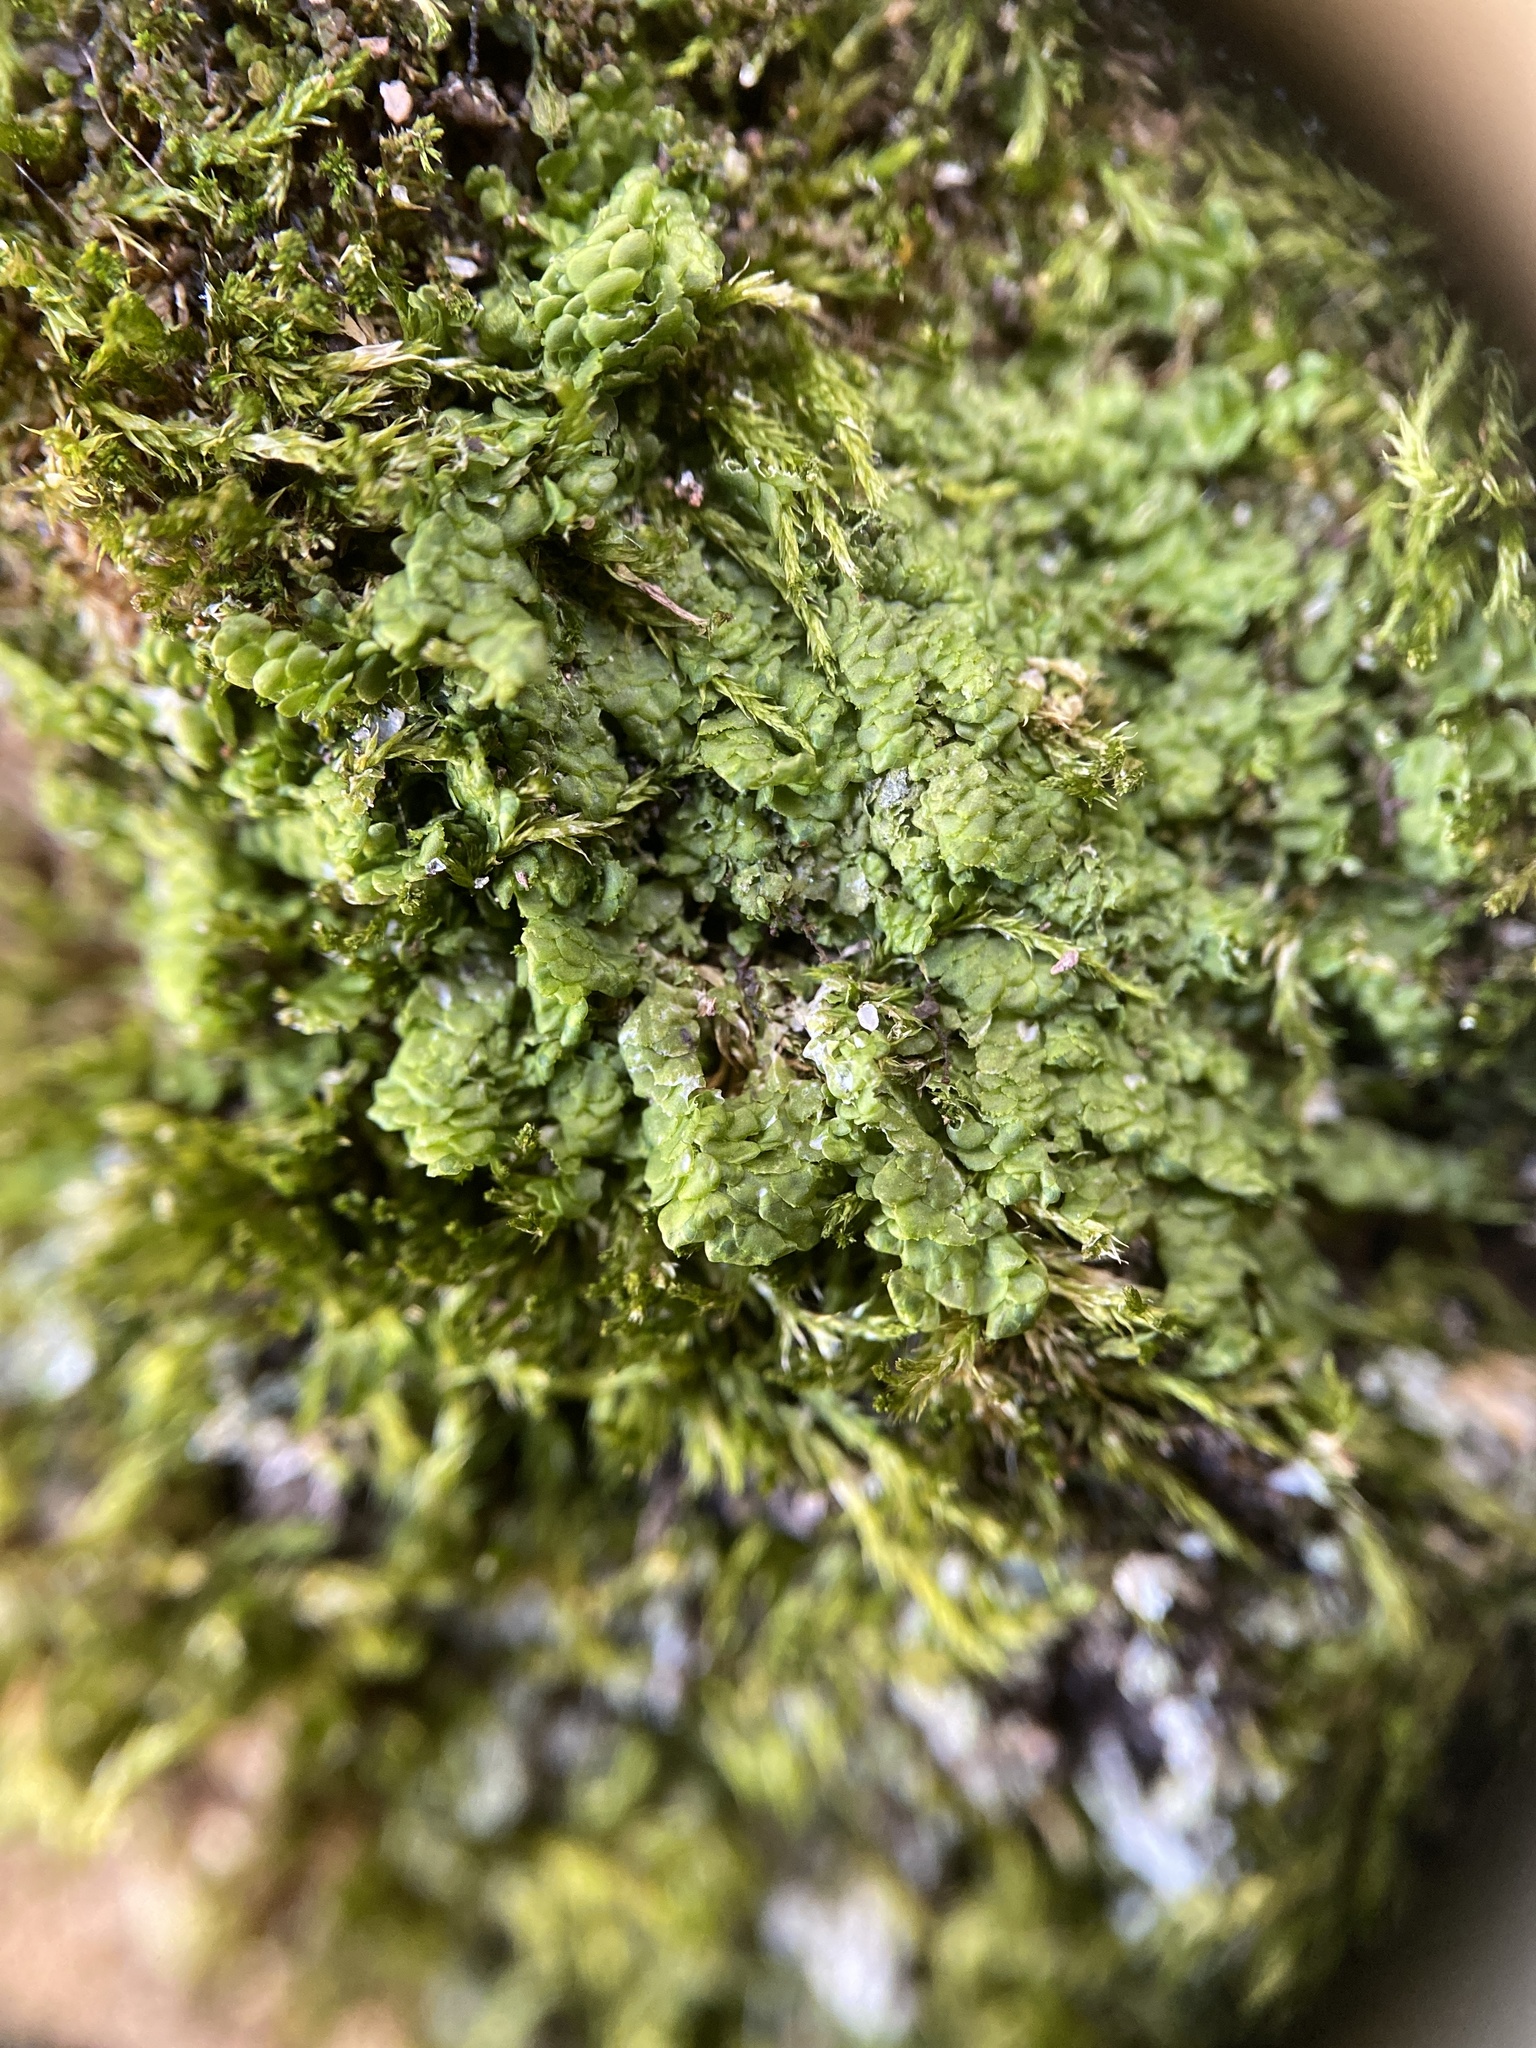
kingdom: Plantae
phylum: Marchantiophyta
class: Jungermanniopsida
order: Porellales
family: Radulaceae
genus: Radula
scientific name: Radula complanata
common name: Flat-leaved scalewort
